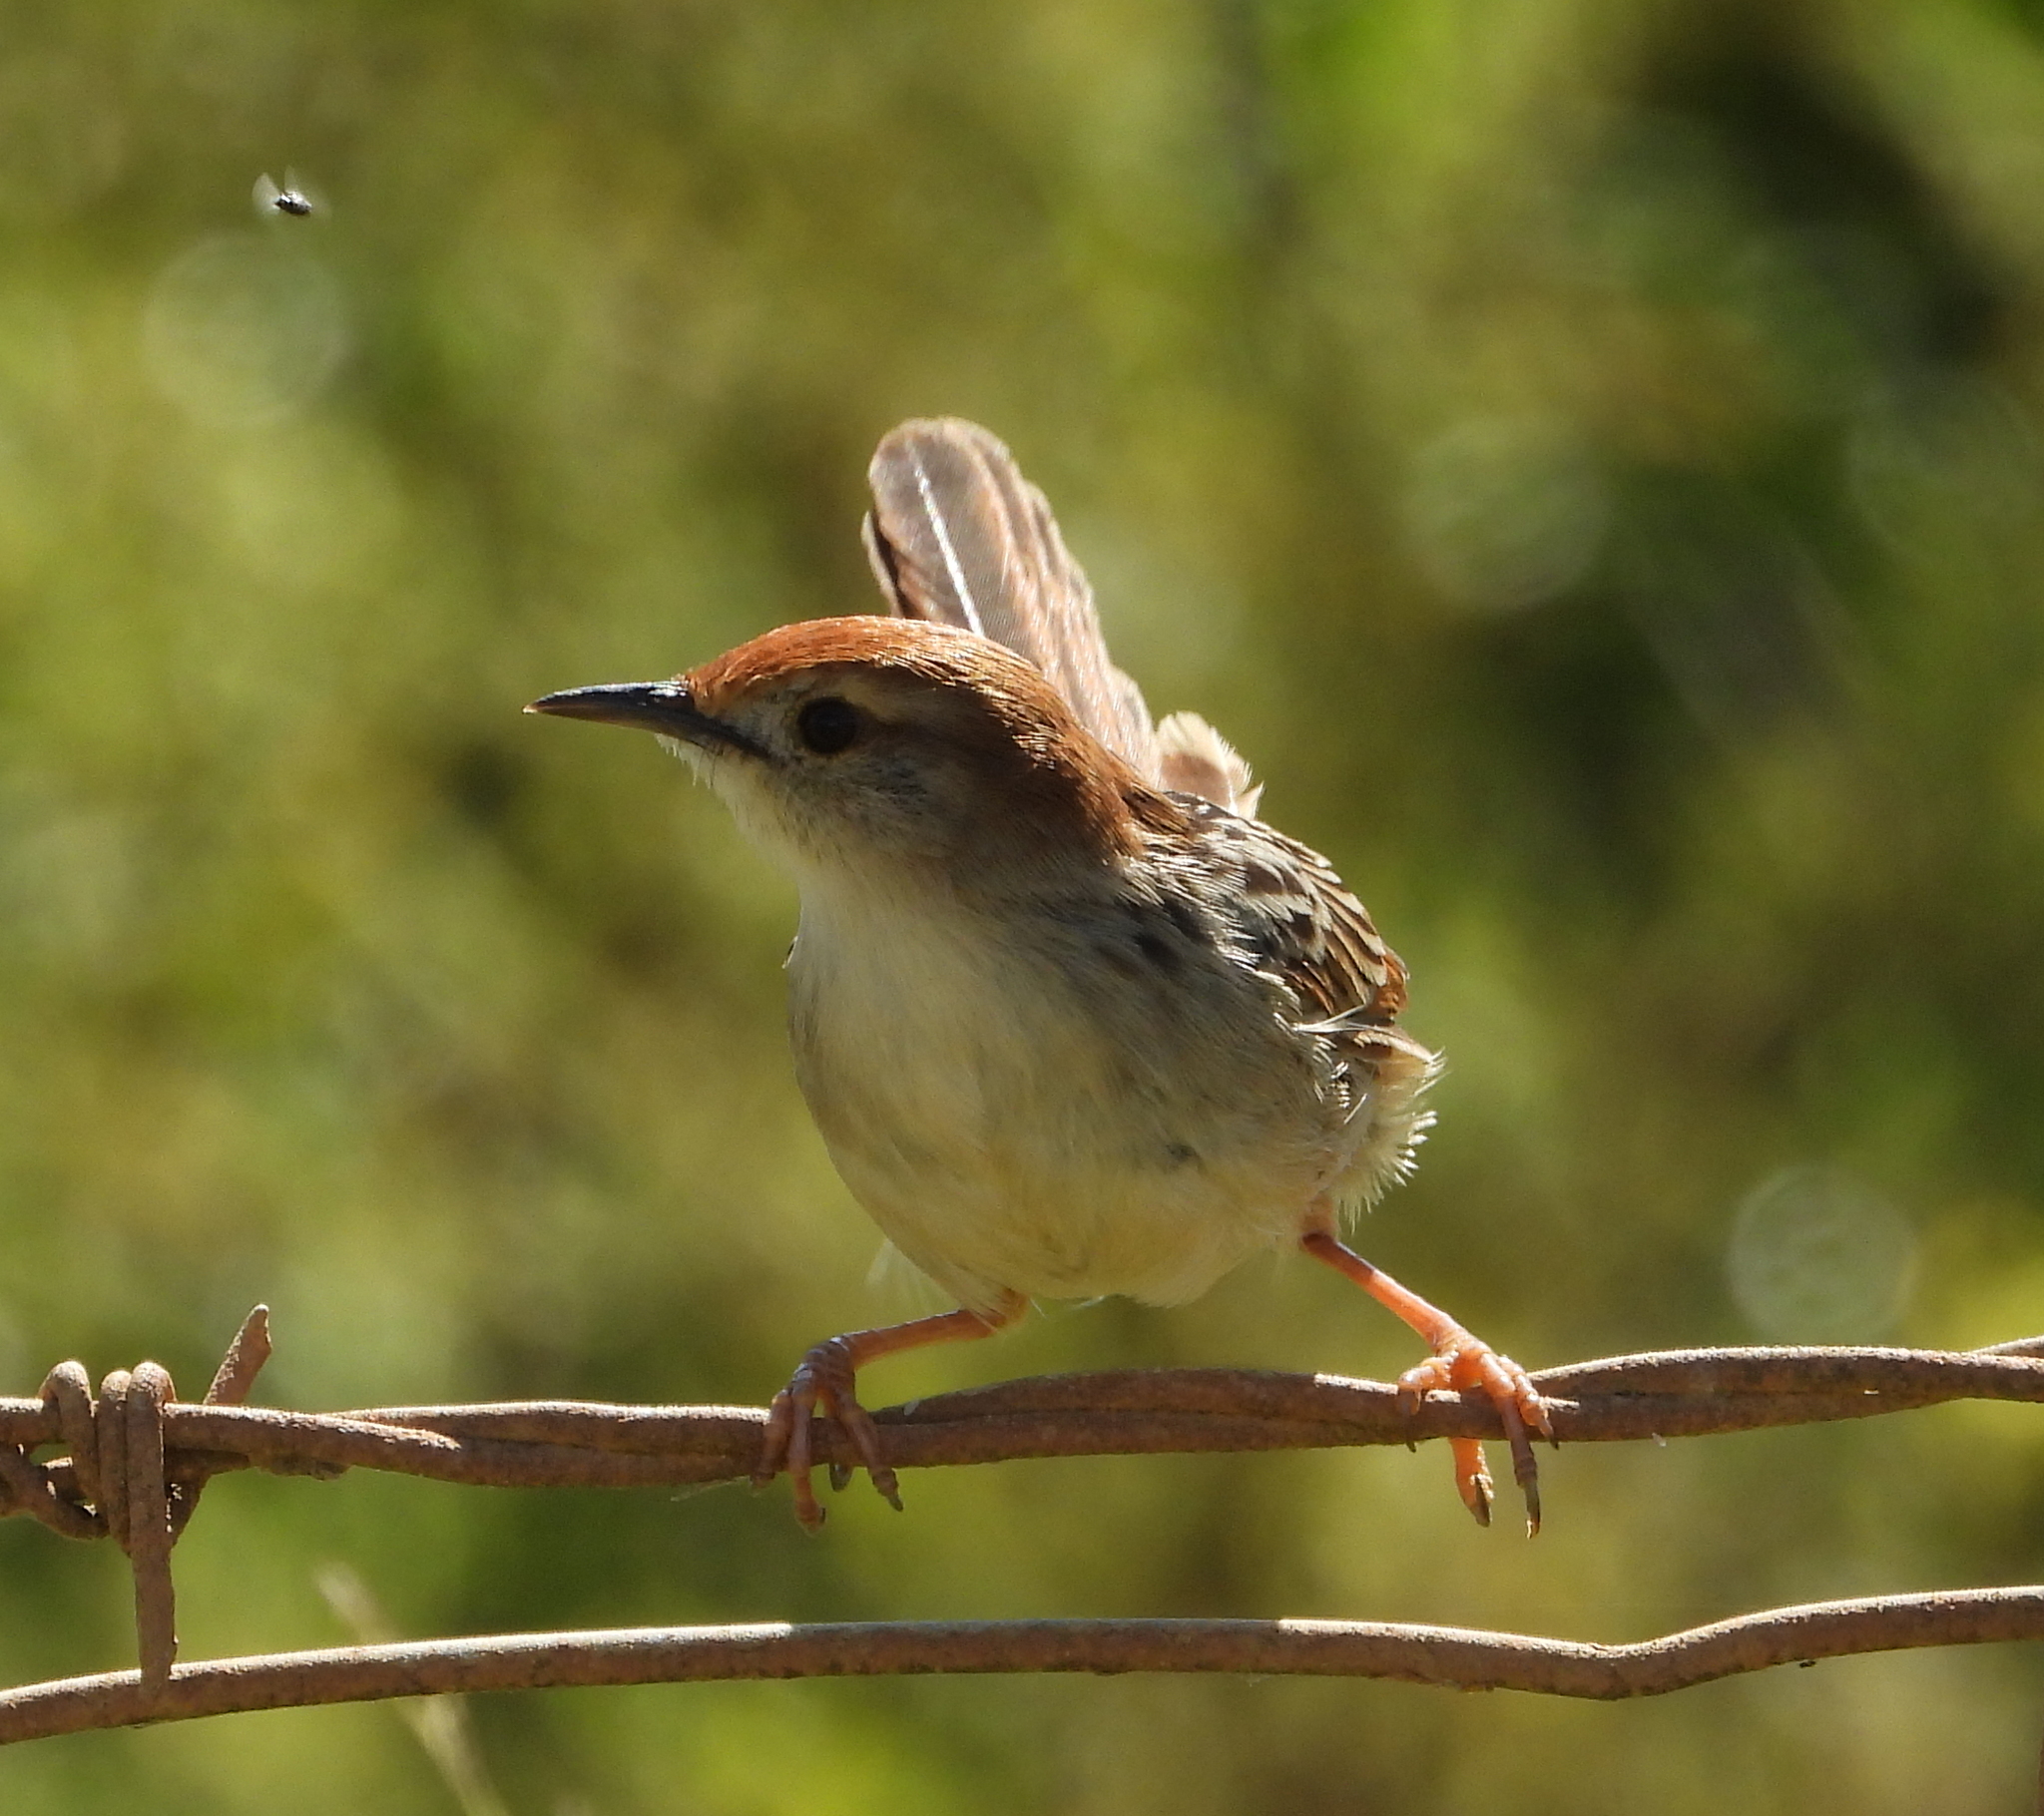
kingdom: Animalia
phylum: Chordata
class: Aves
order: Passeriformes
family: Cisticolidae
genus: Cisticola
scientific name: Cisticola tinniens
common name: Levaillant's cisticola
